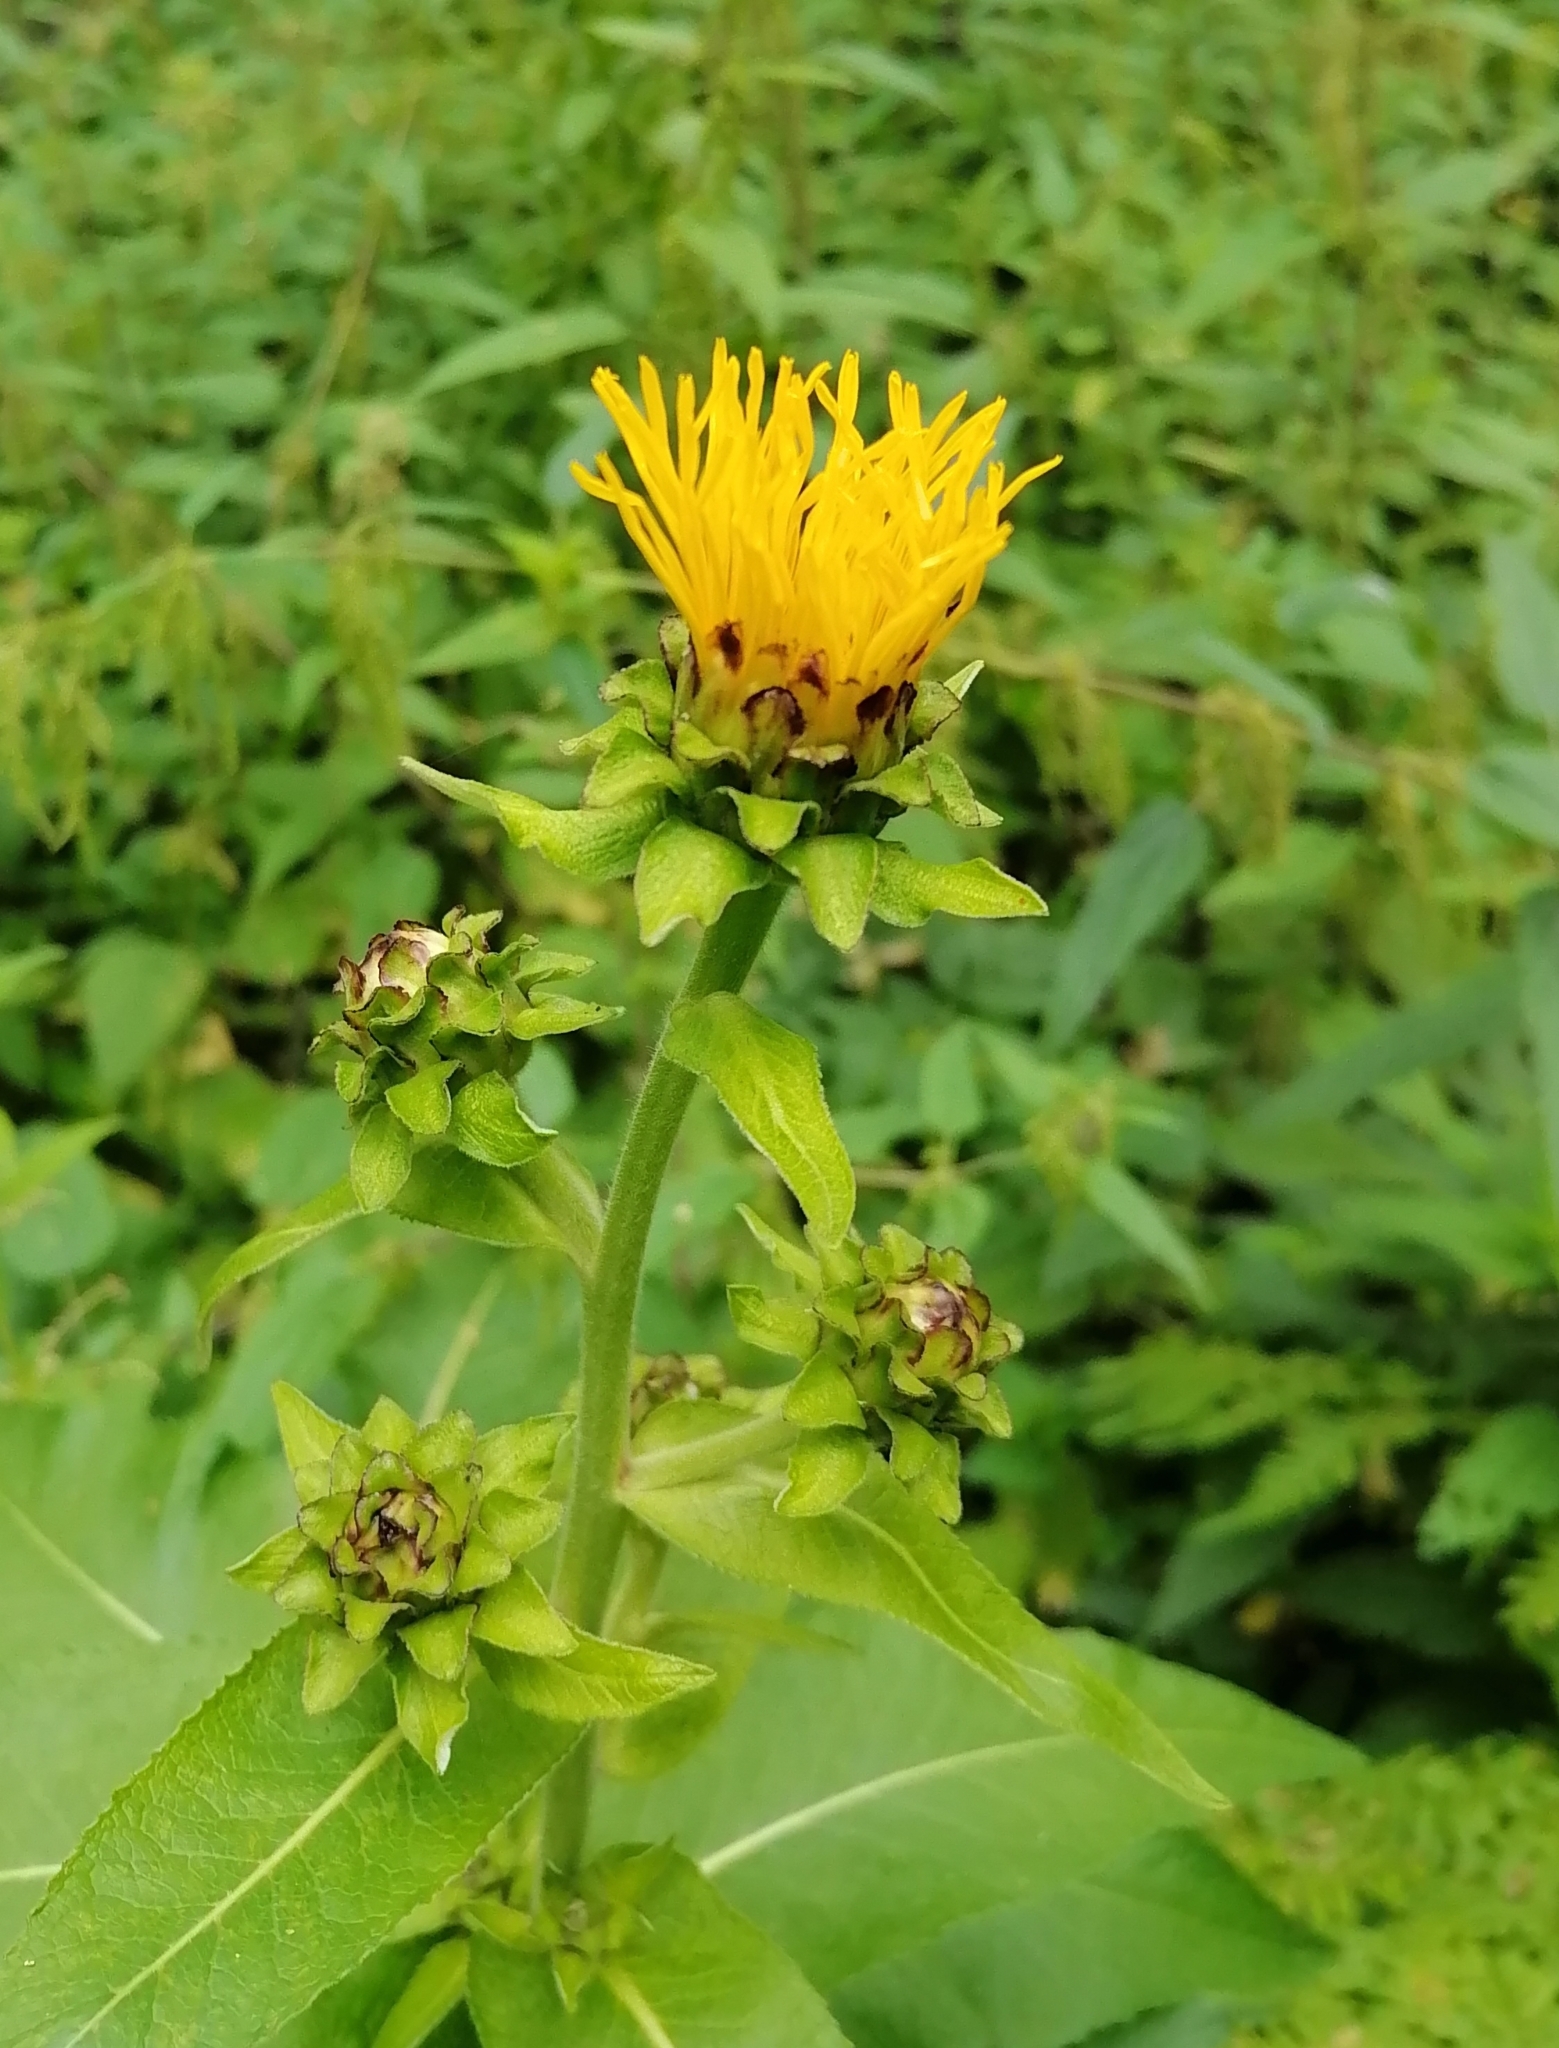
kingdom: Plantae
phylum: Tracheophyta
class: Magnoliopsida
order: Asterales
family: Asteraceae
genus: Inula
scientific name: Inula helenium
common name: Elecampane
